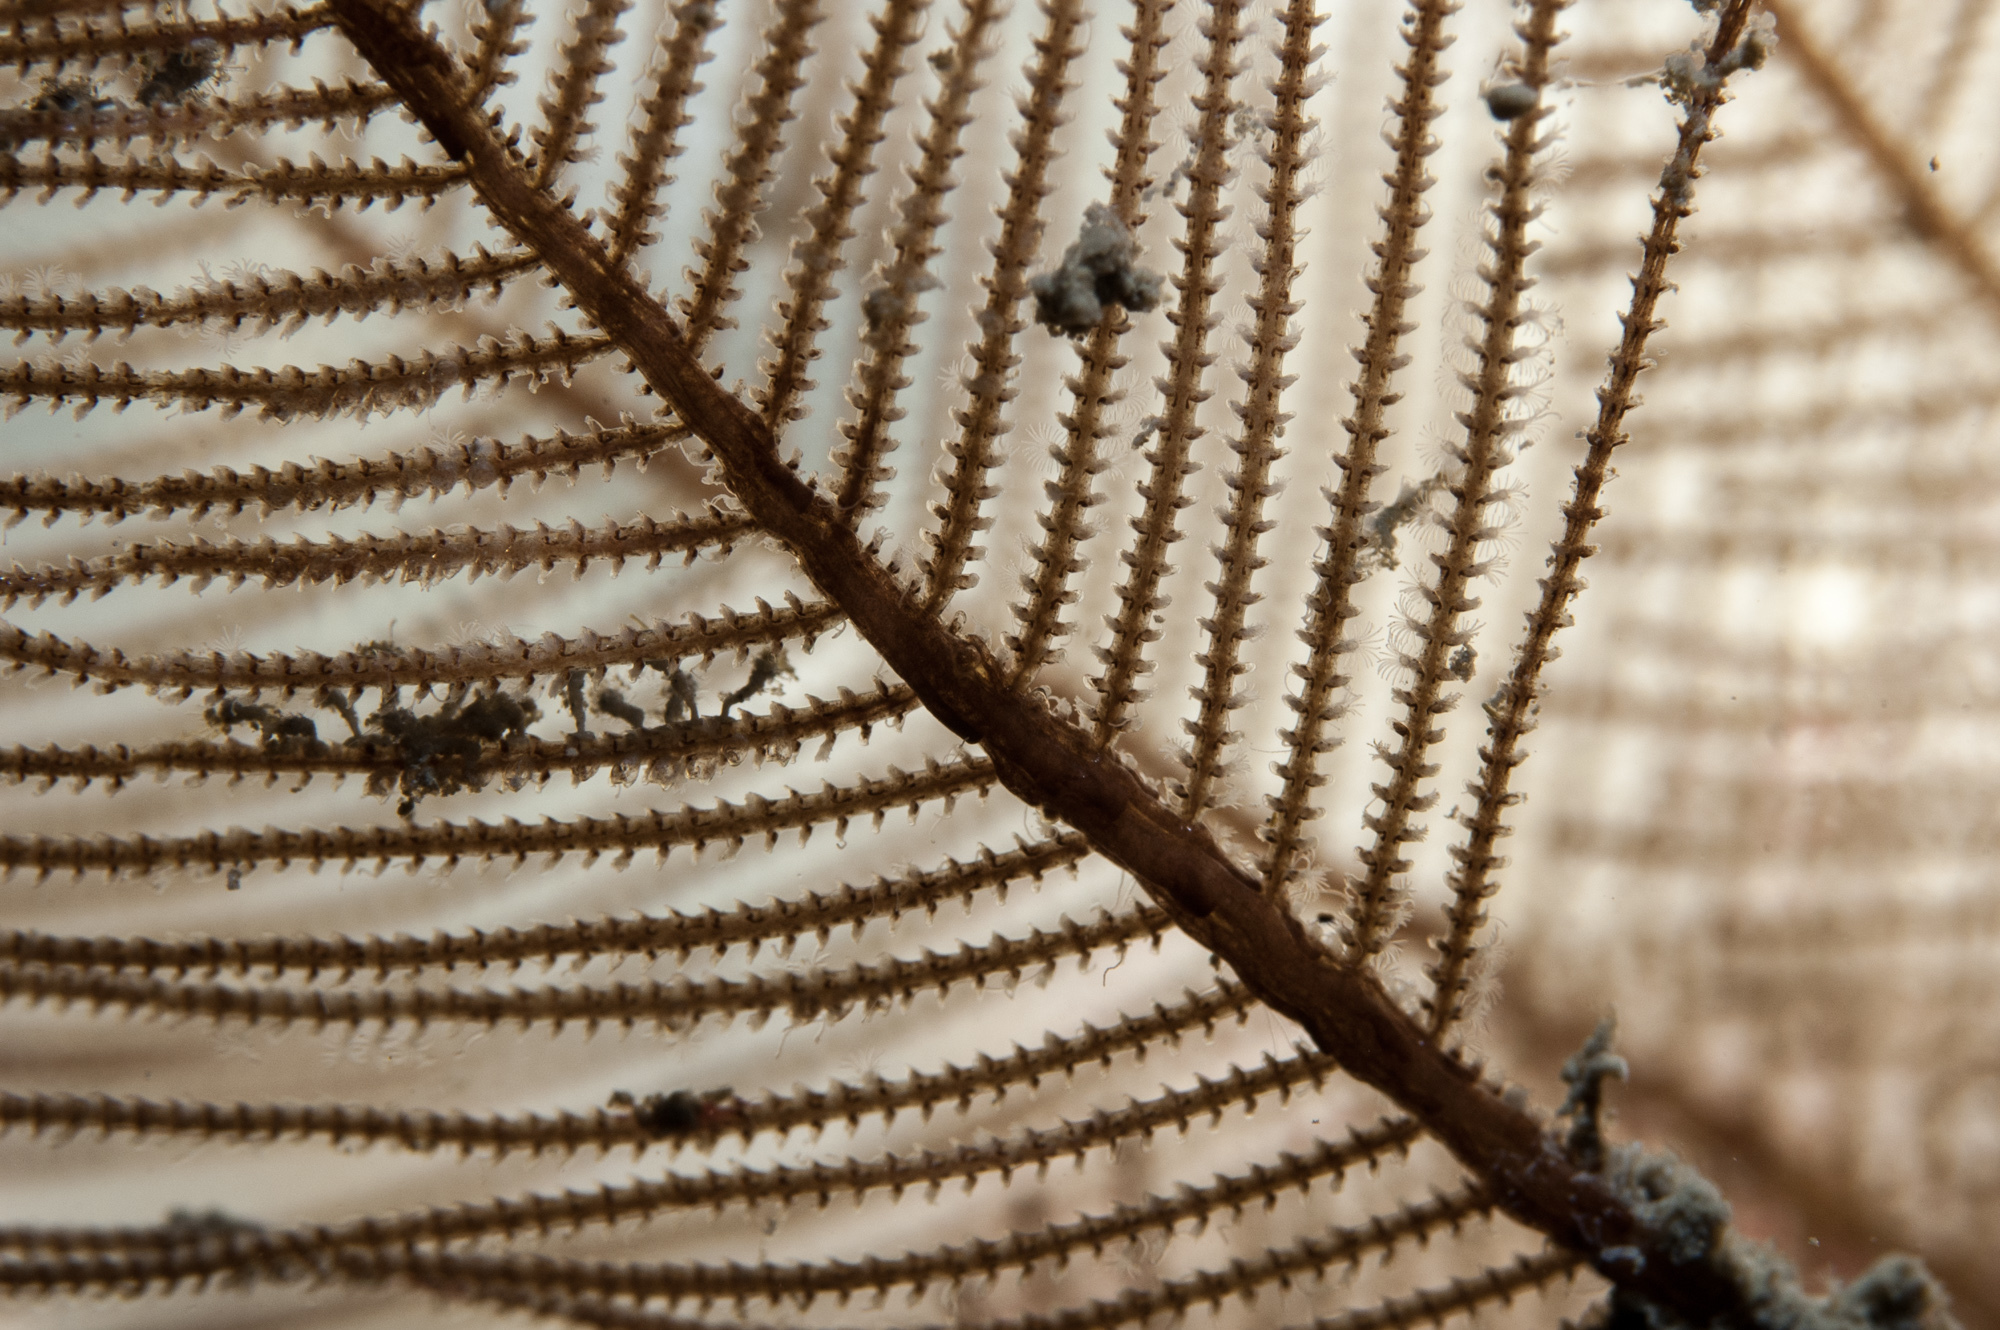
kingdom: Animalia
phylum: Cnidaria
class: Hydrozoa
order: Leptothecata
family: Sertulariidae
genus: Diphasia
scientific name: Diphasia alata
